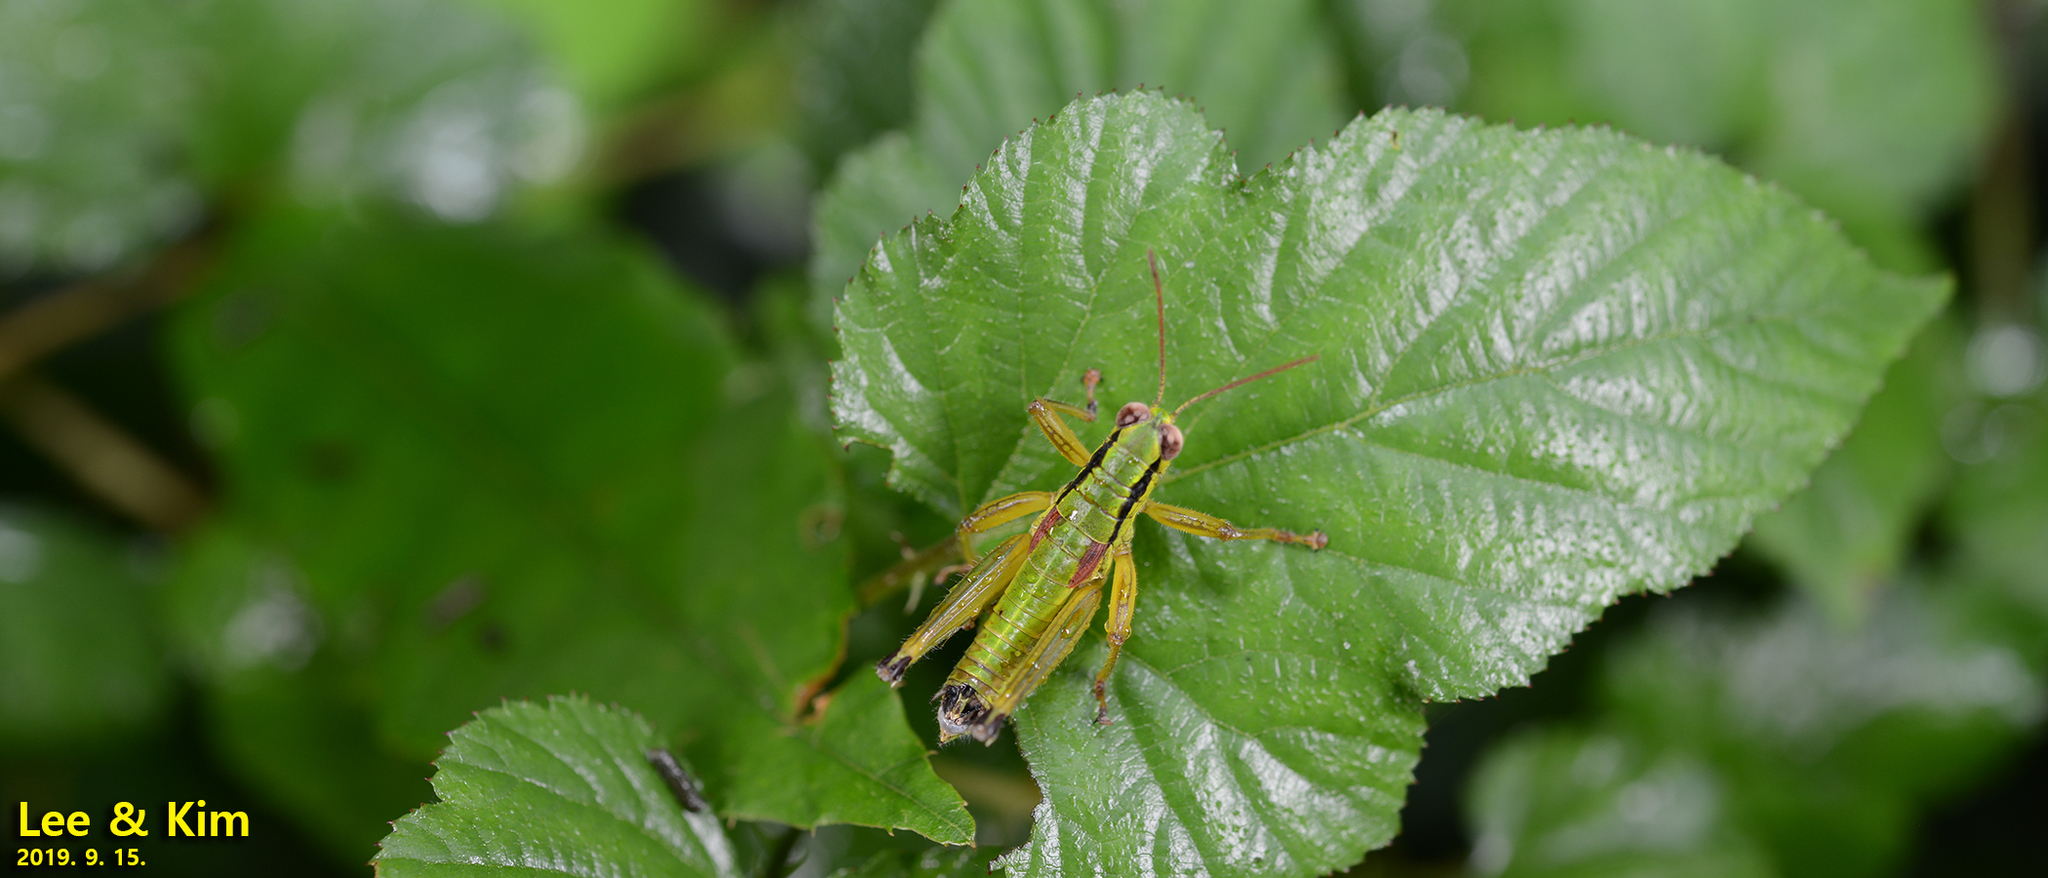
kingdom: Animalia
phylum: Arthropoda
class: Insecta
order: Orthoptera
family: Acrididae
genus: Anapodisma
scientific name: Anapodisma miramae
